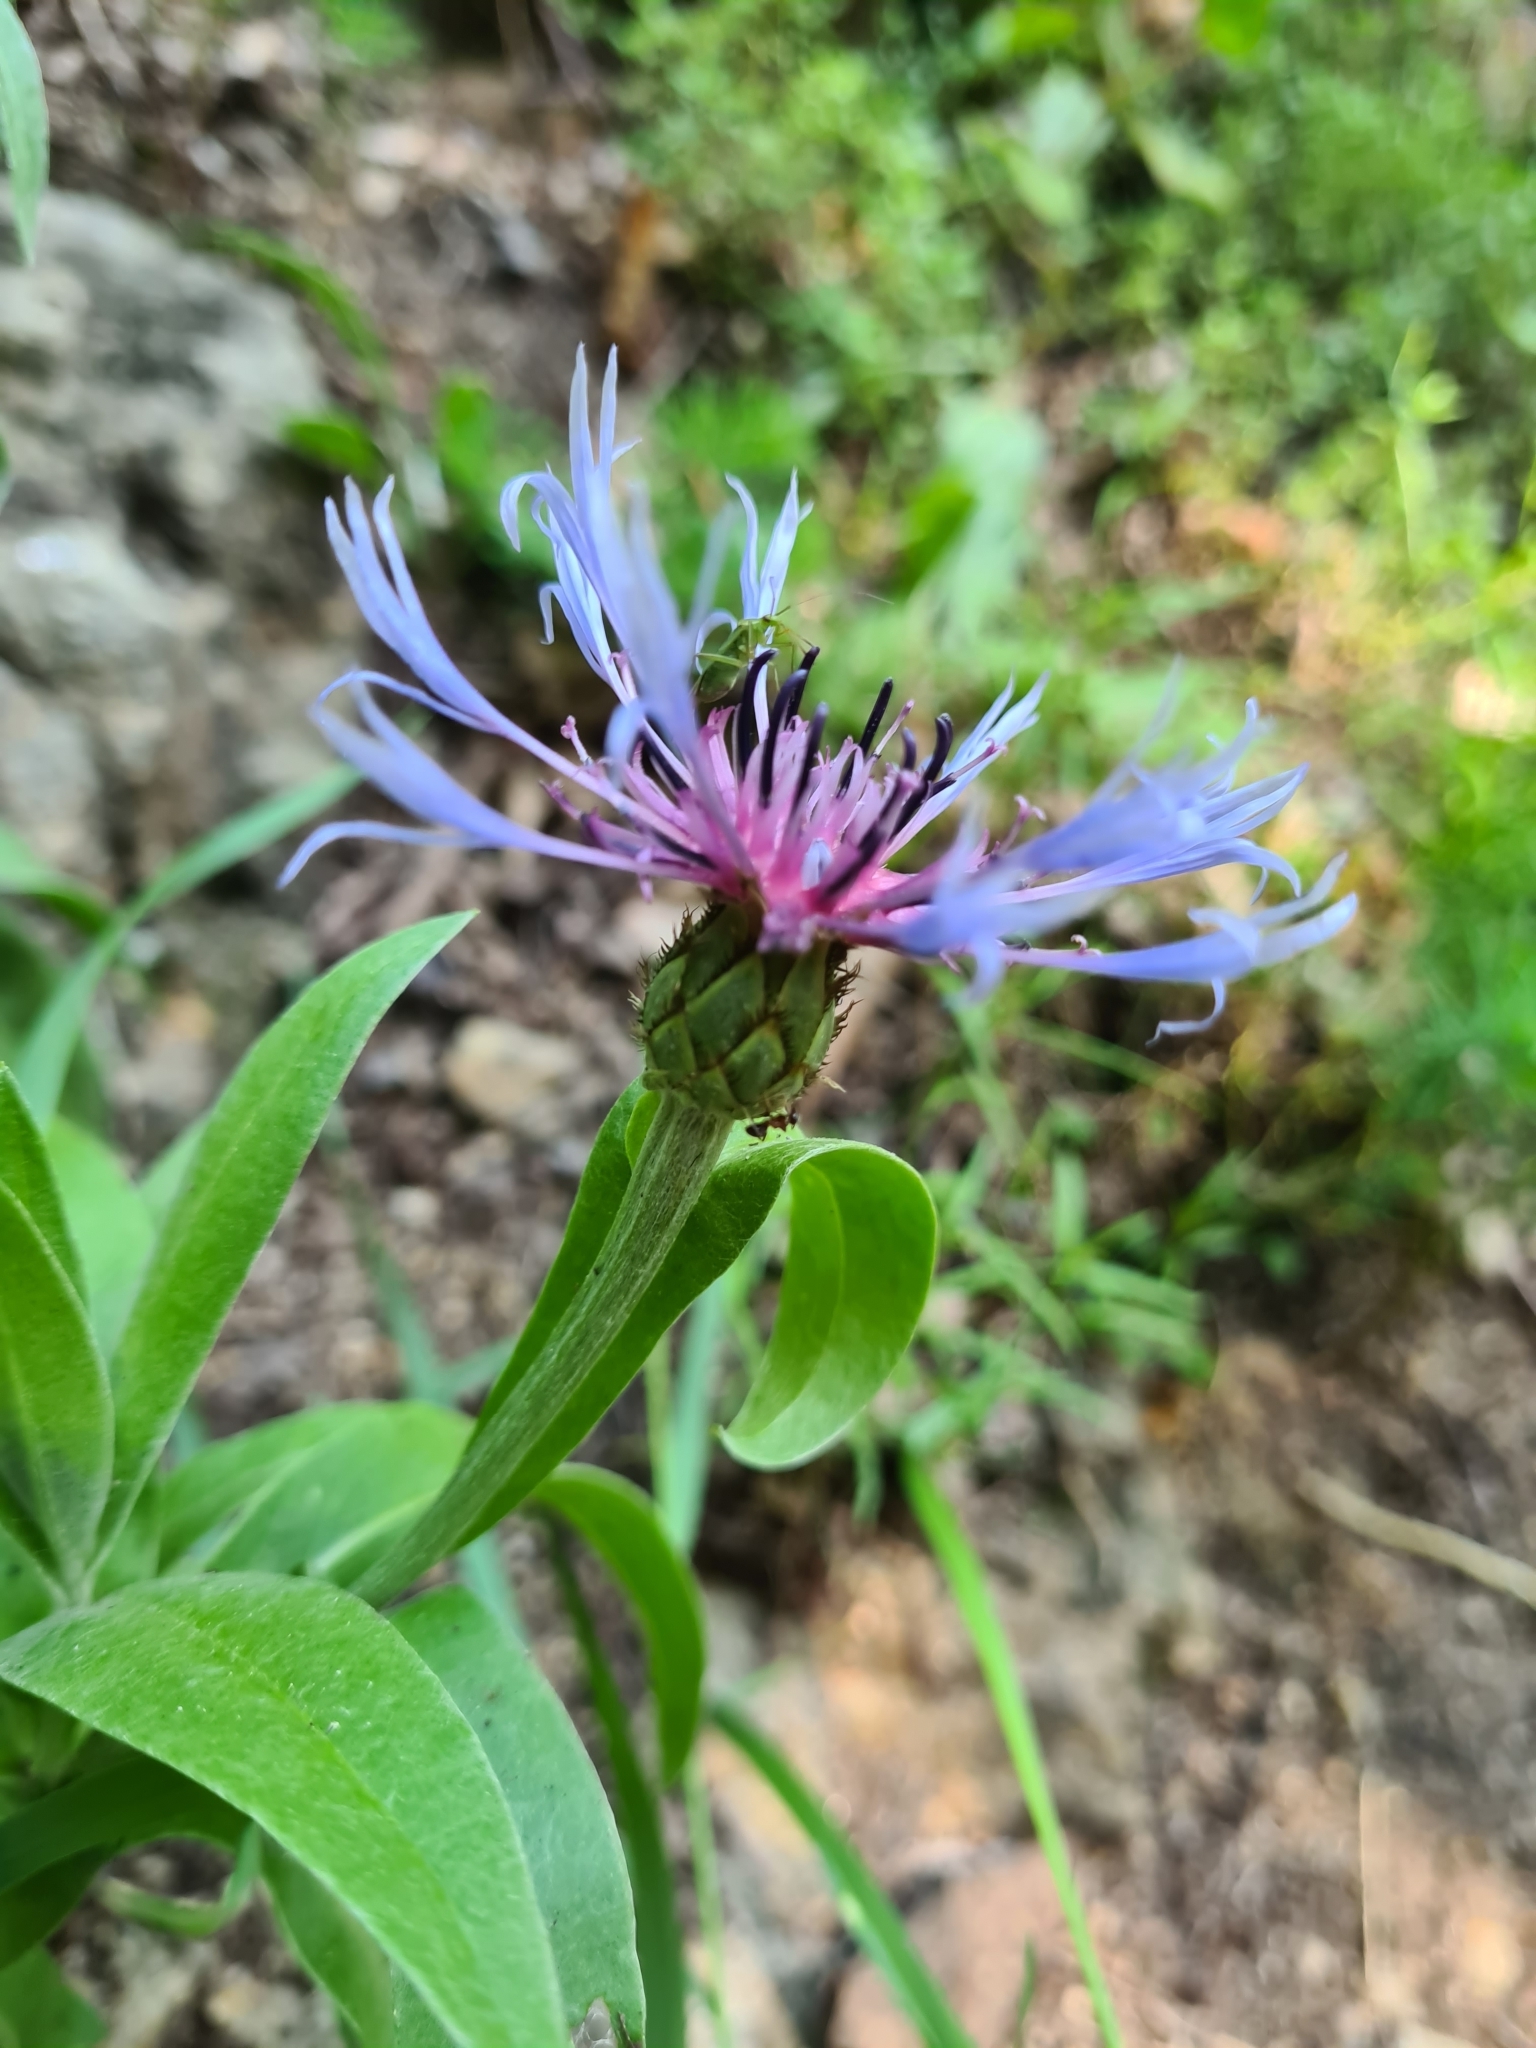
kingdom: Plantae
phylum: Tracheophyta
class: Magnoliopsida
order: Asterales
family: Asteraceae
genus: Centaurea
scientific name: Centaurea triumfettii
